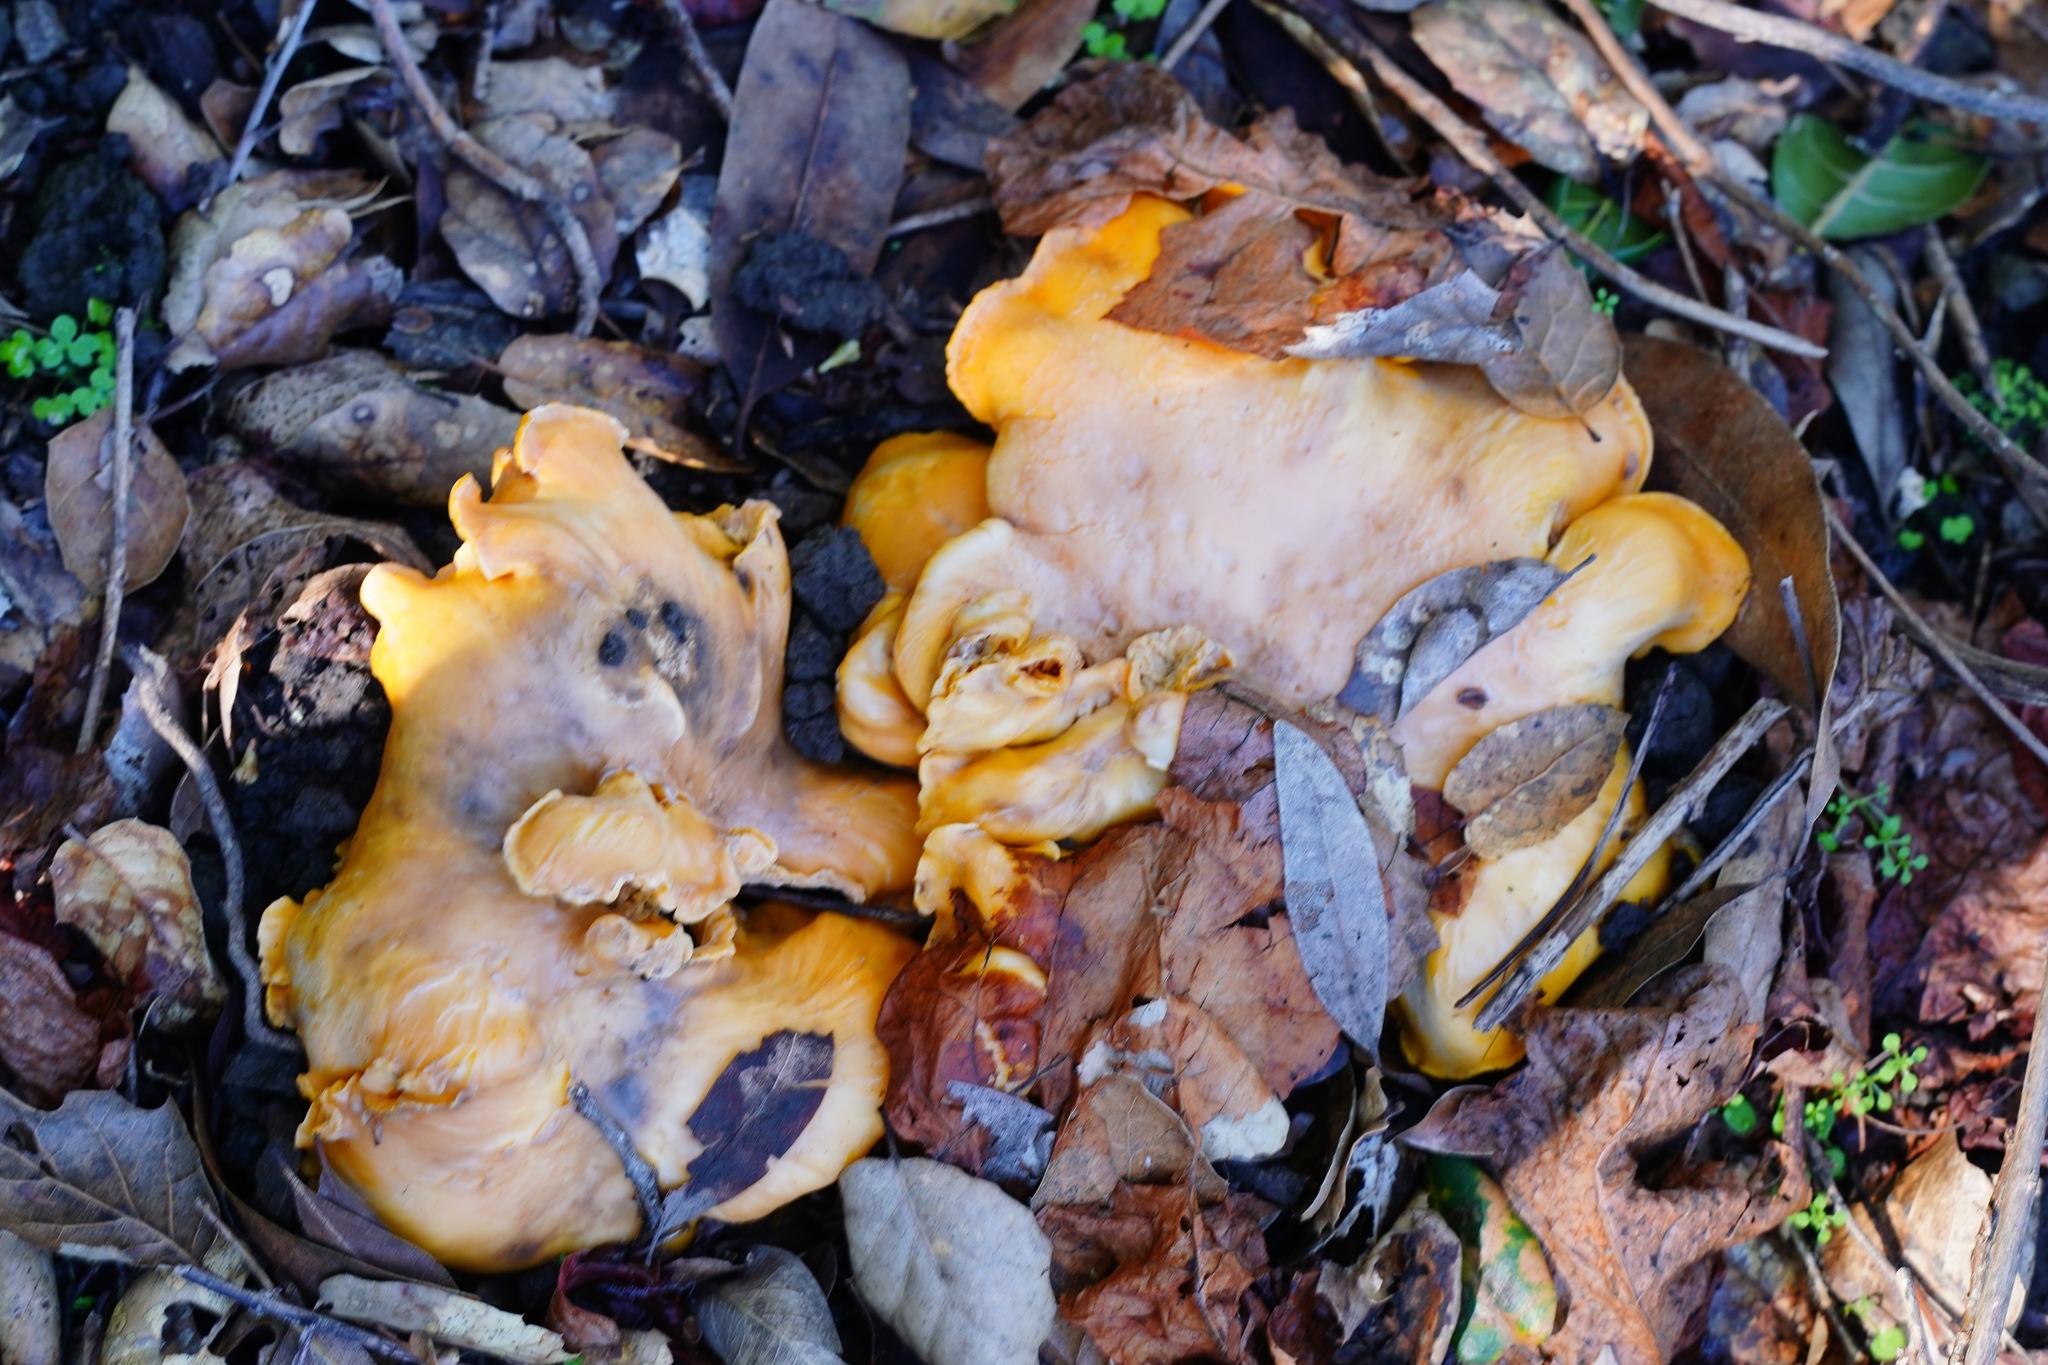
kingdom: Fungi
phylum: Basidiomycota
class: Agaricomycetes
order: Cantharellales
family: Hydnaceae
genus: Cantharellus
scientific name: Cantharellus californicus
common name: California golden chanterelle
